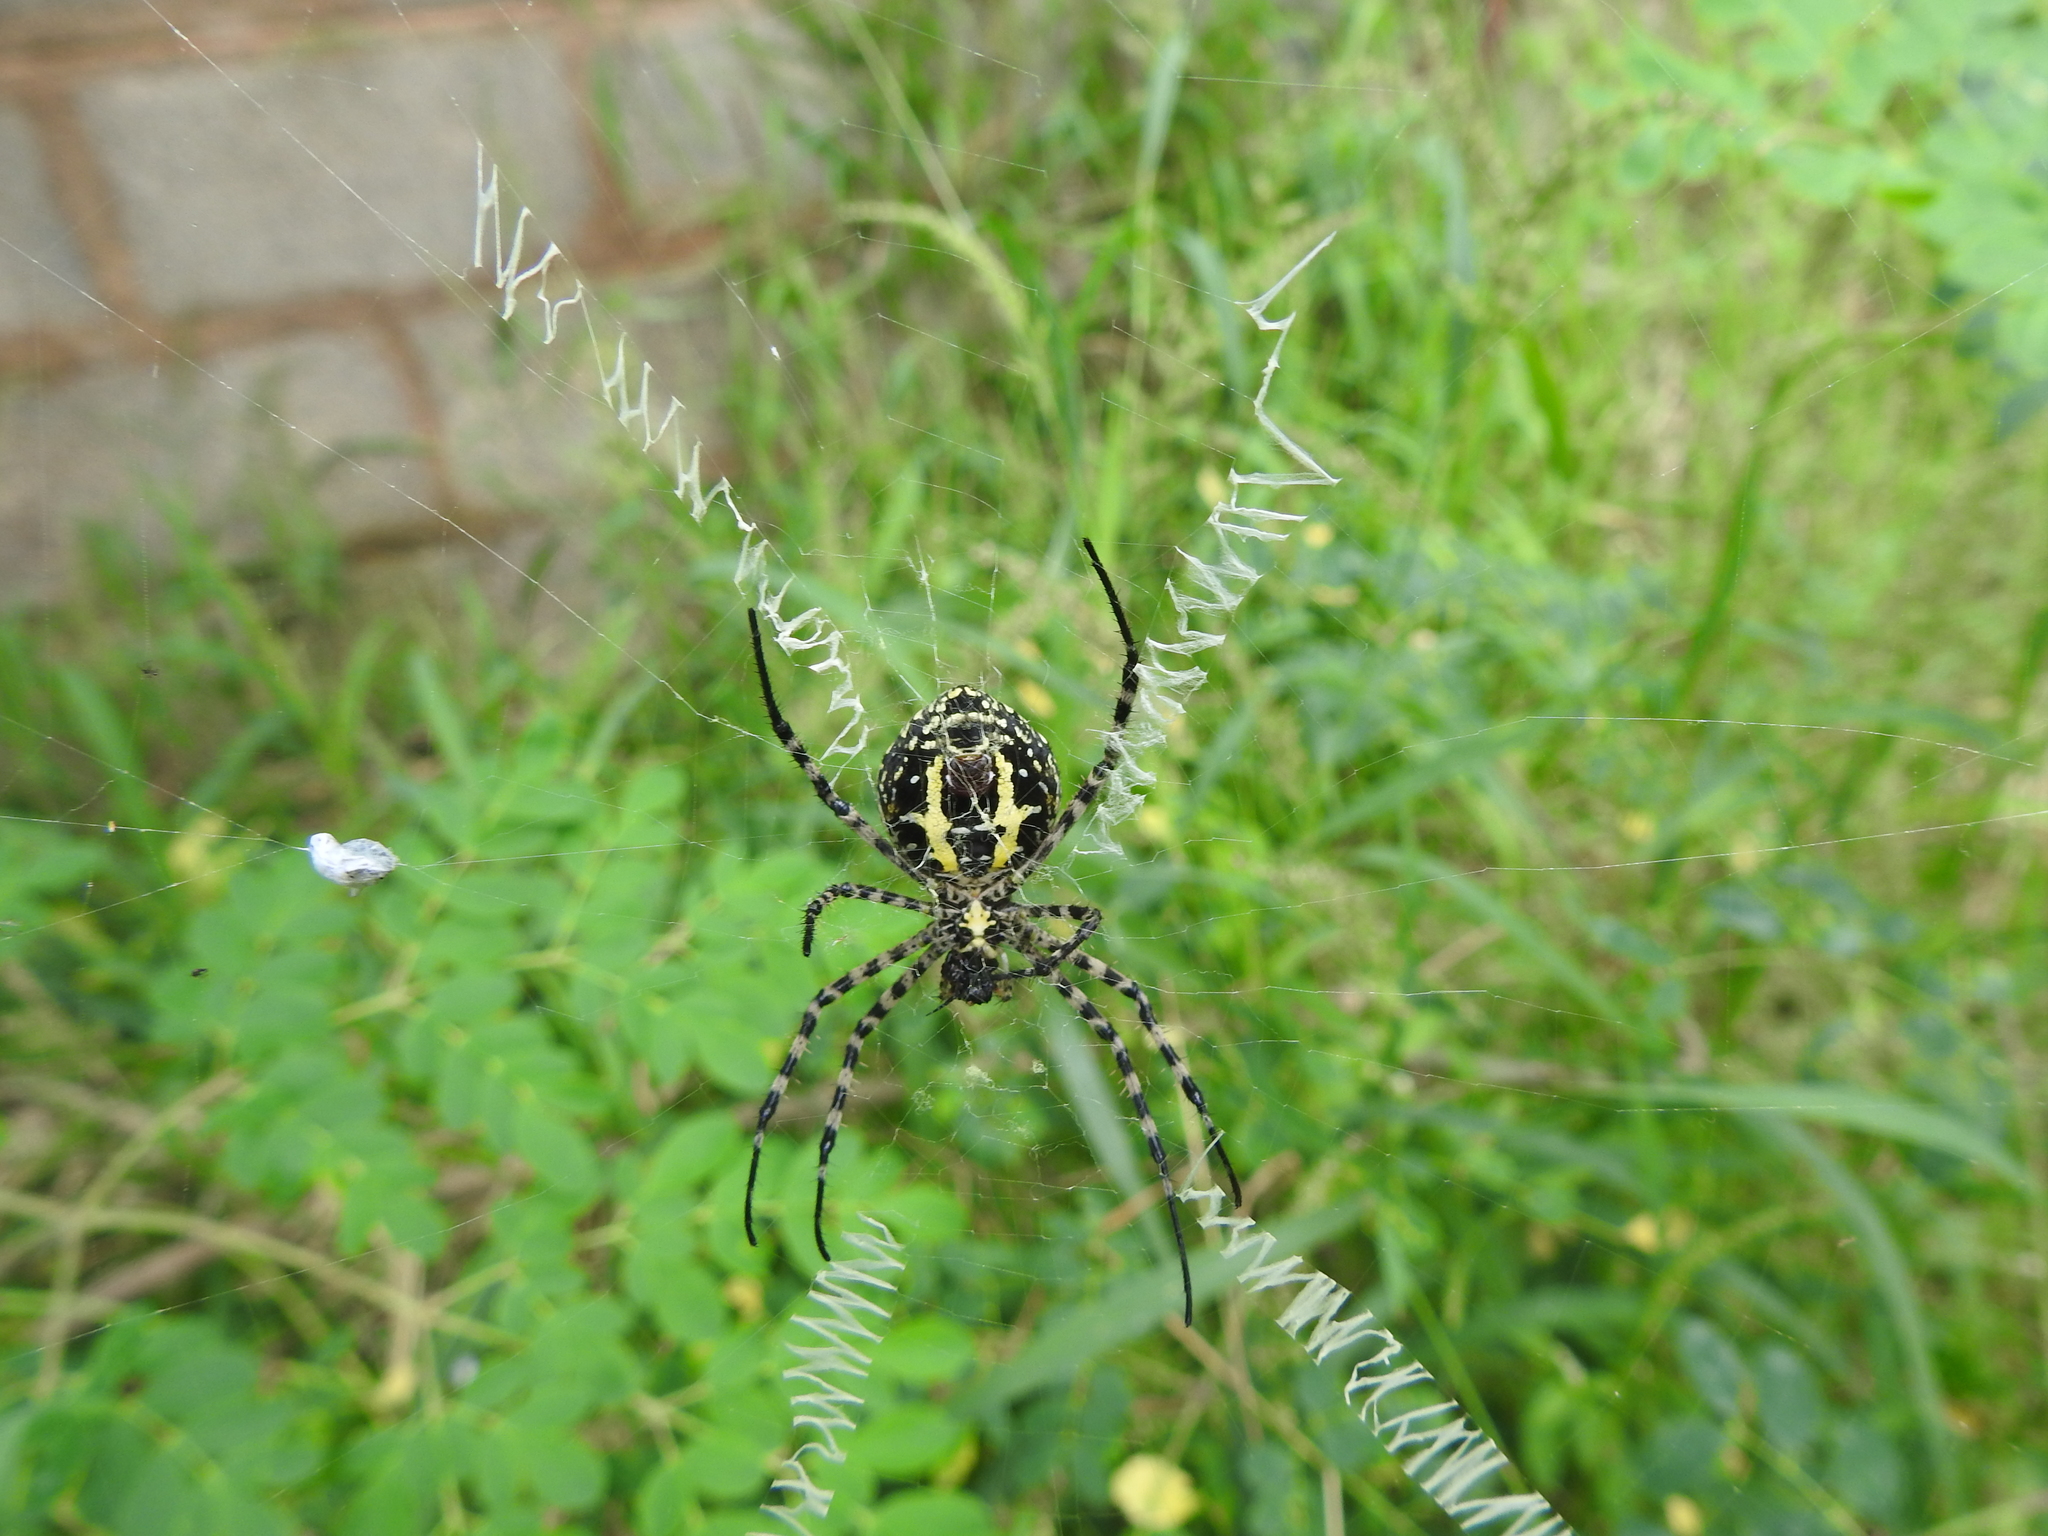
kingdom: Animalia
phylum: Arthropoda
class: Arachnida
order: Araneae
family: Araneidae
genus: Argiope
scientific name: Argiope aemula
